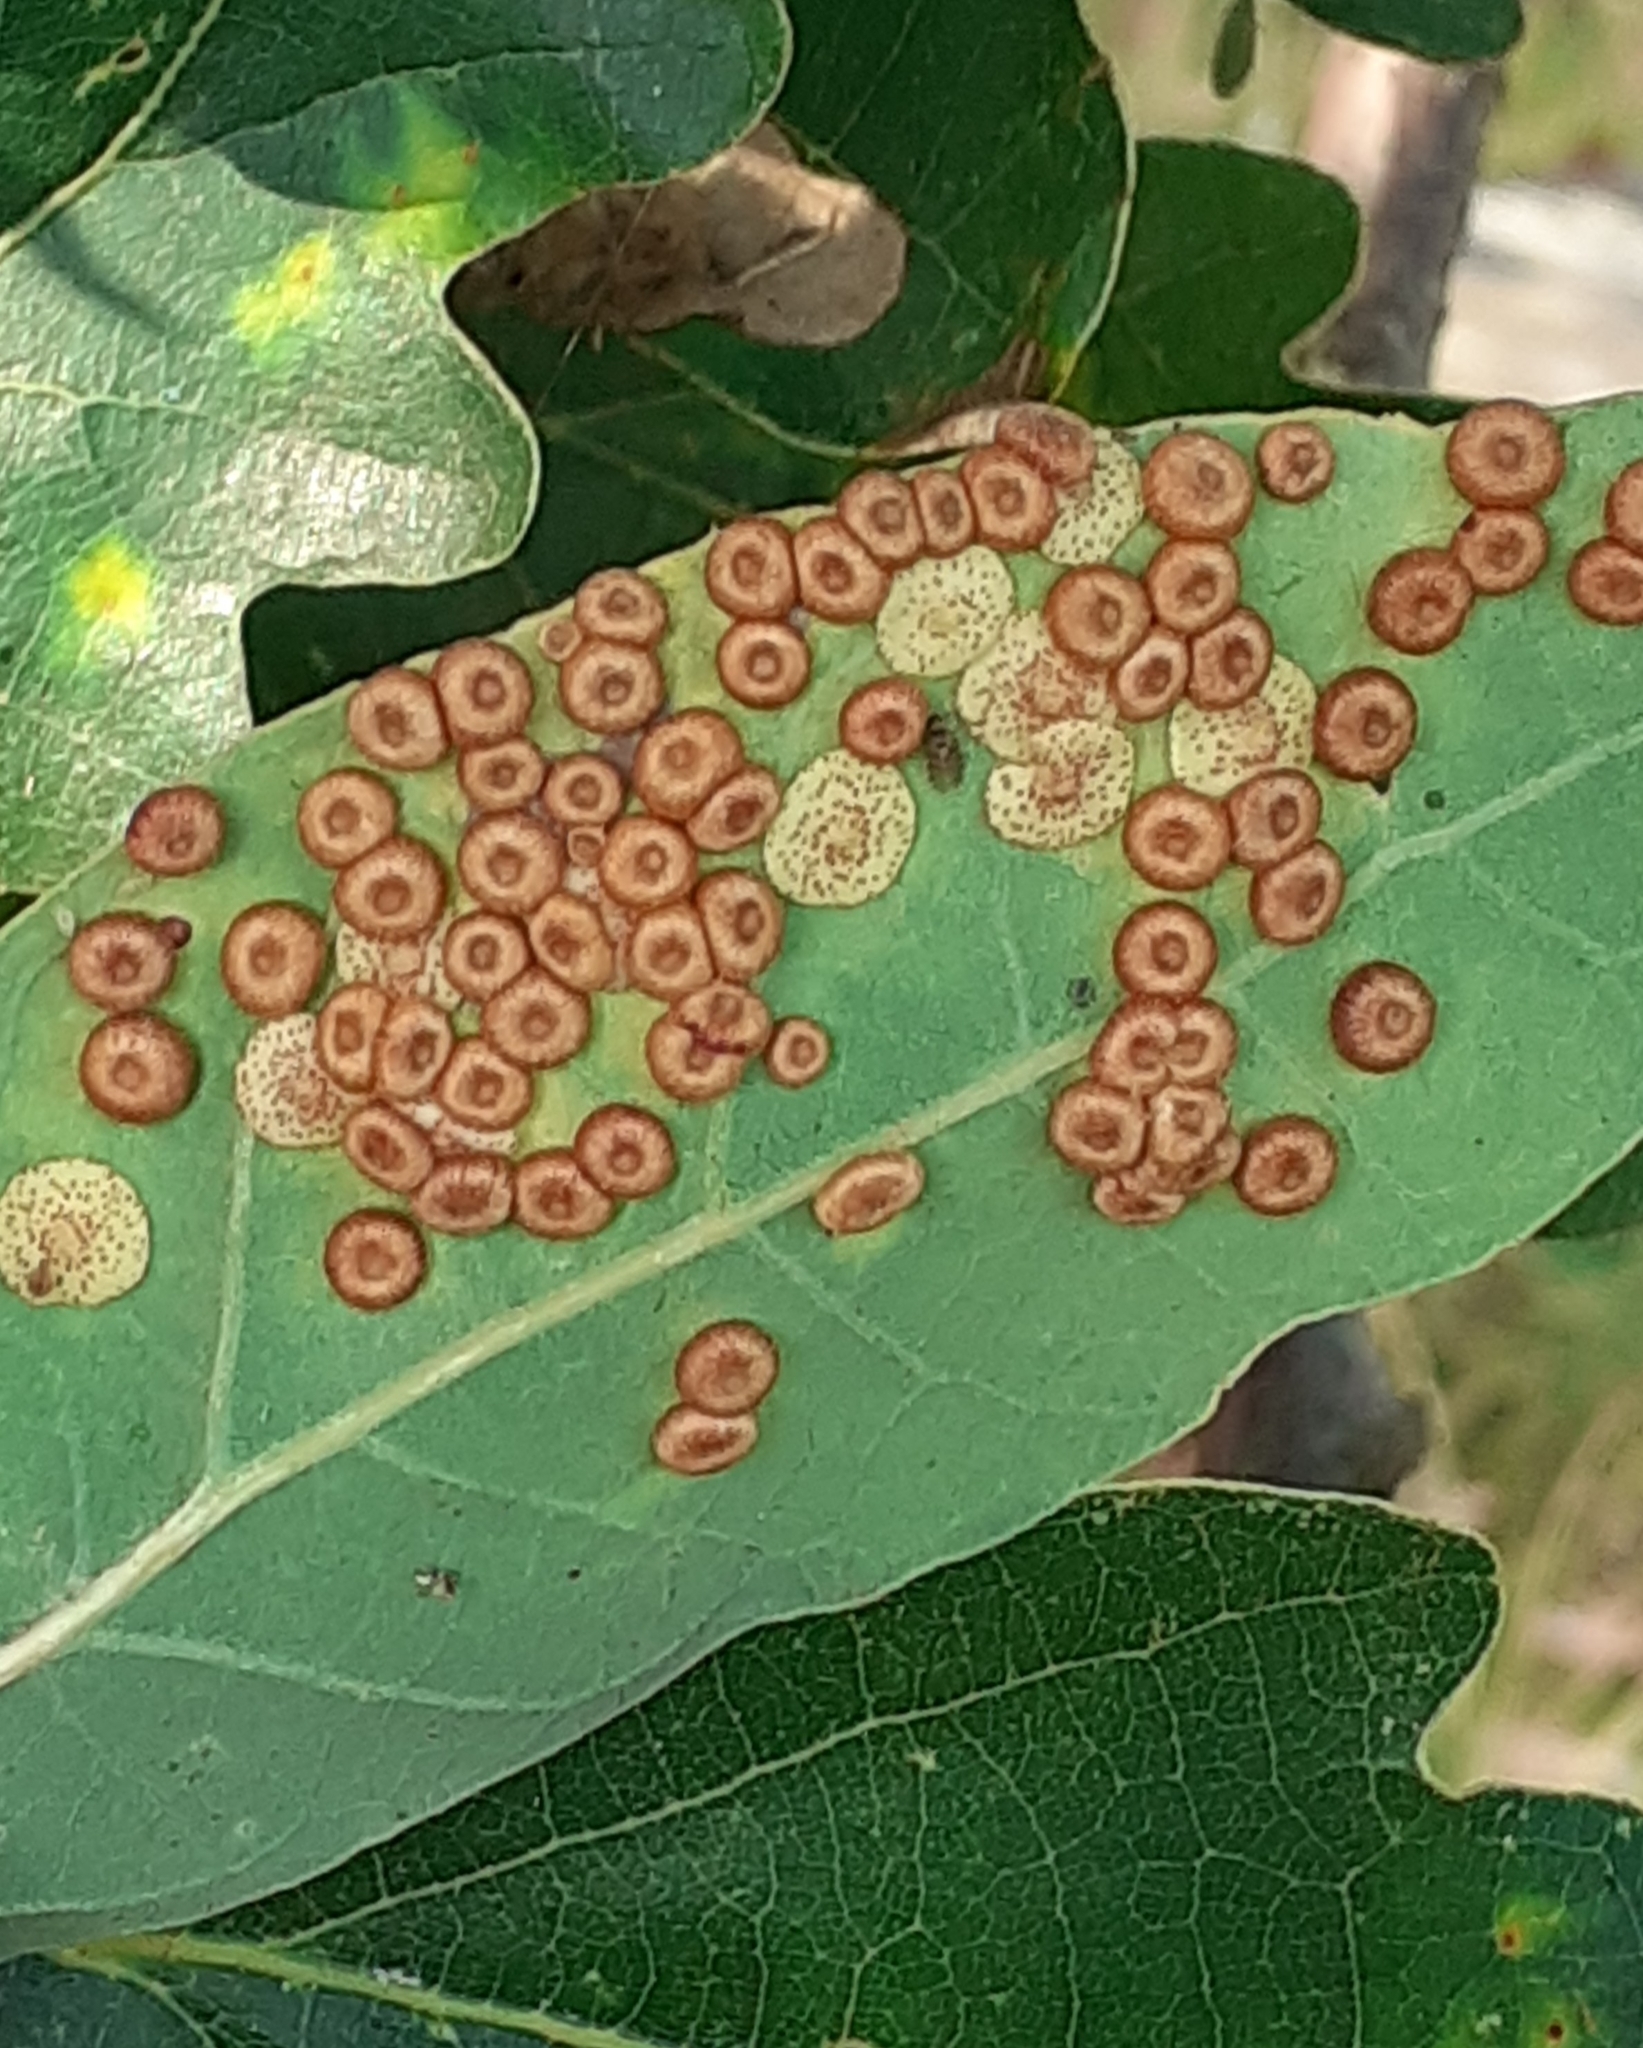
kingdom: Animalia
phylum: Arthropoda
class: Insecta
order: Hymenoptera
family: Cynipidae
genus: Neuroterus
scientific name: Neuroterus quercusbaccarum
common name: Common spangle gall
